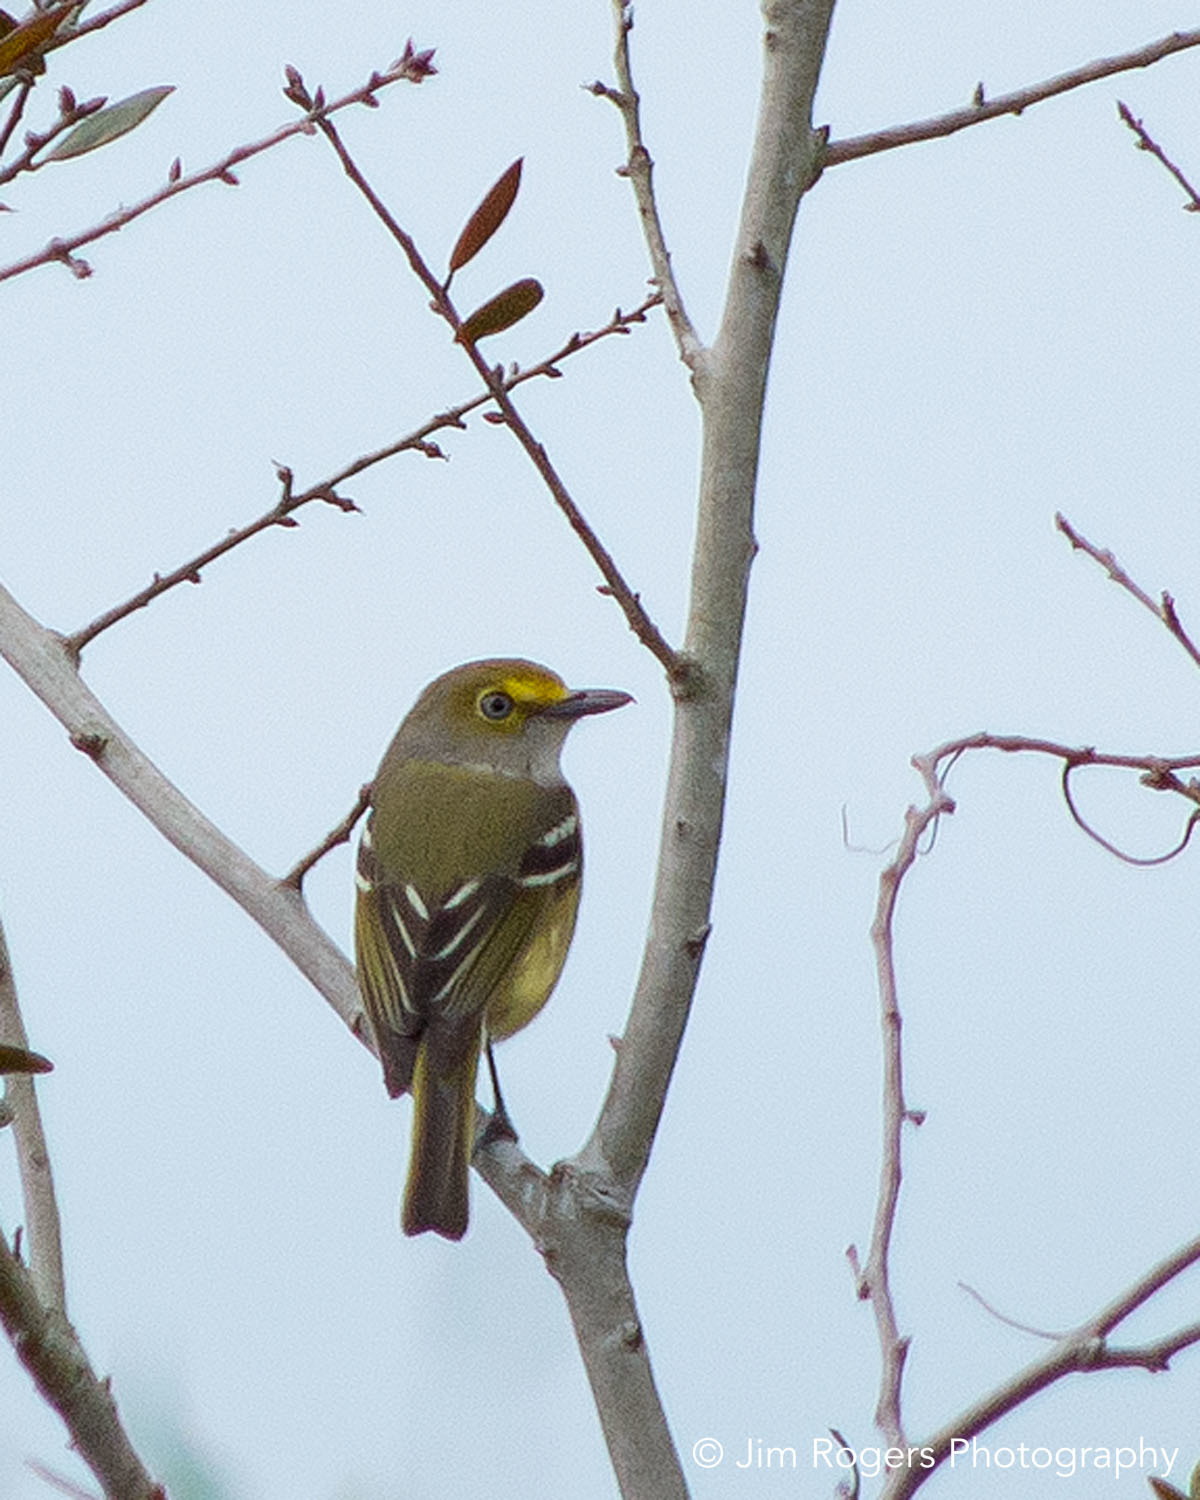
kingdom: Animalia
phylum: Chordata
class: Aves
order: Passeriformes
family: Vireonidae
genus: Vireo
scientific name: Vireo griseus
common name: White-eyed vireo
